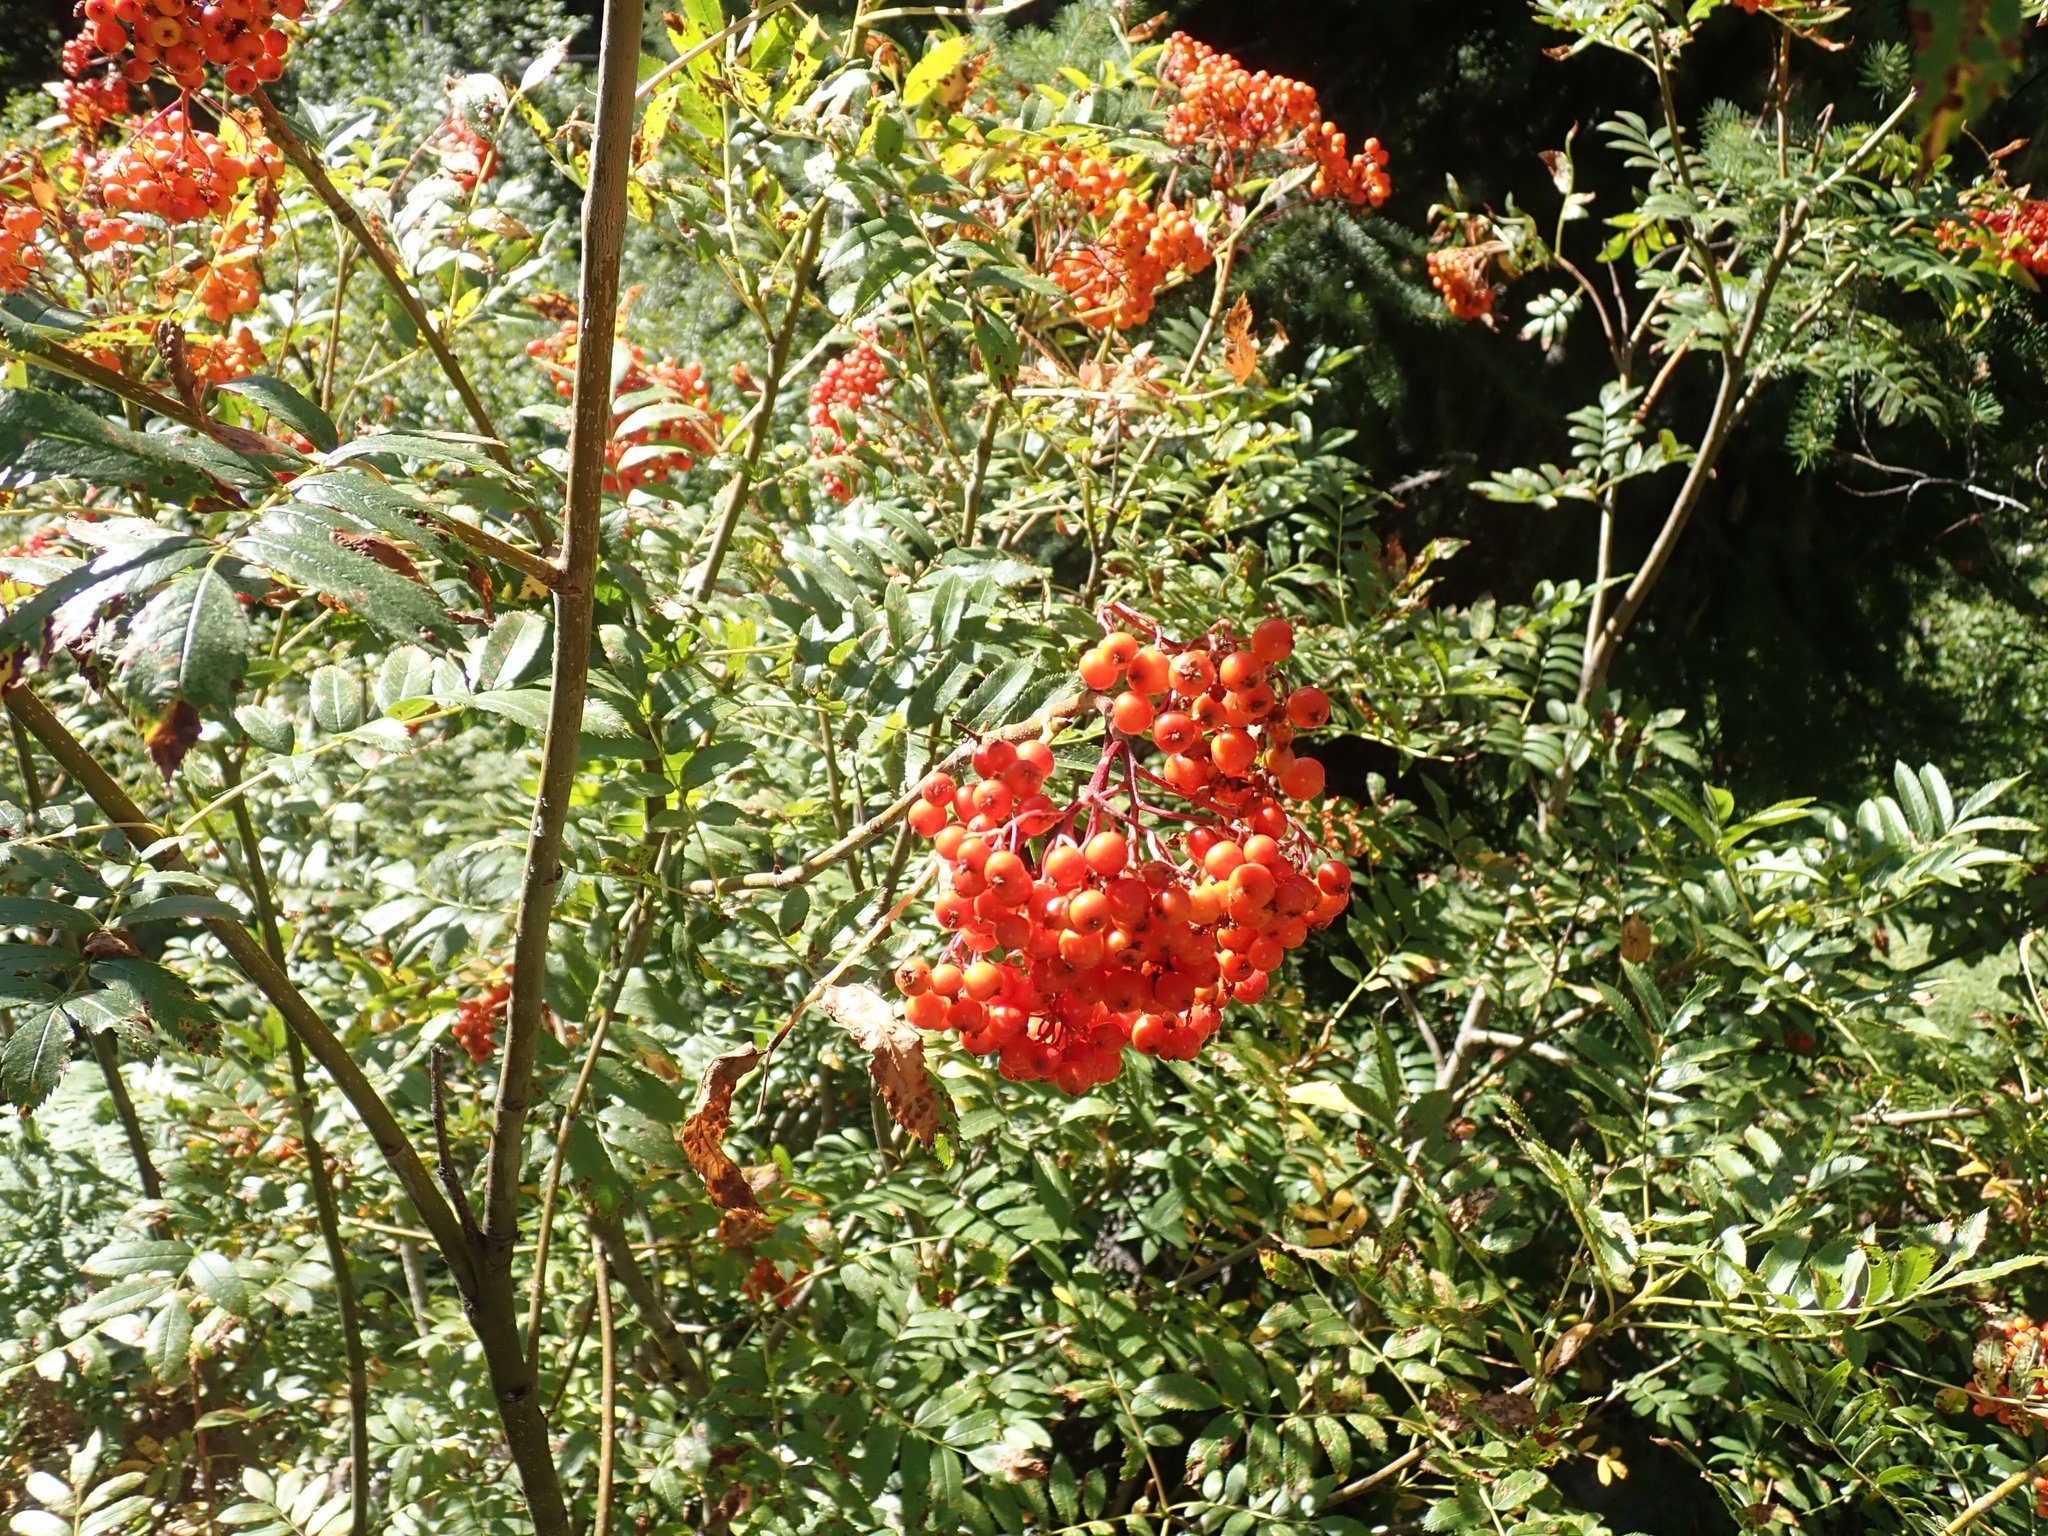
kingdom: Plantae
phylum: Tracheophyta
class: Magnoliopsida
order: Rosales
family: Rosaceae
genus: Sorbus
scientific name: Sorbus scopulina
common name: Greene's mountain-ash
